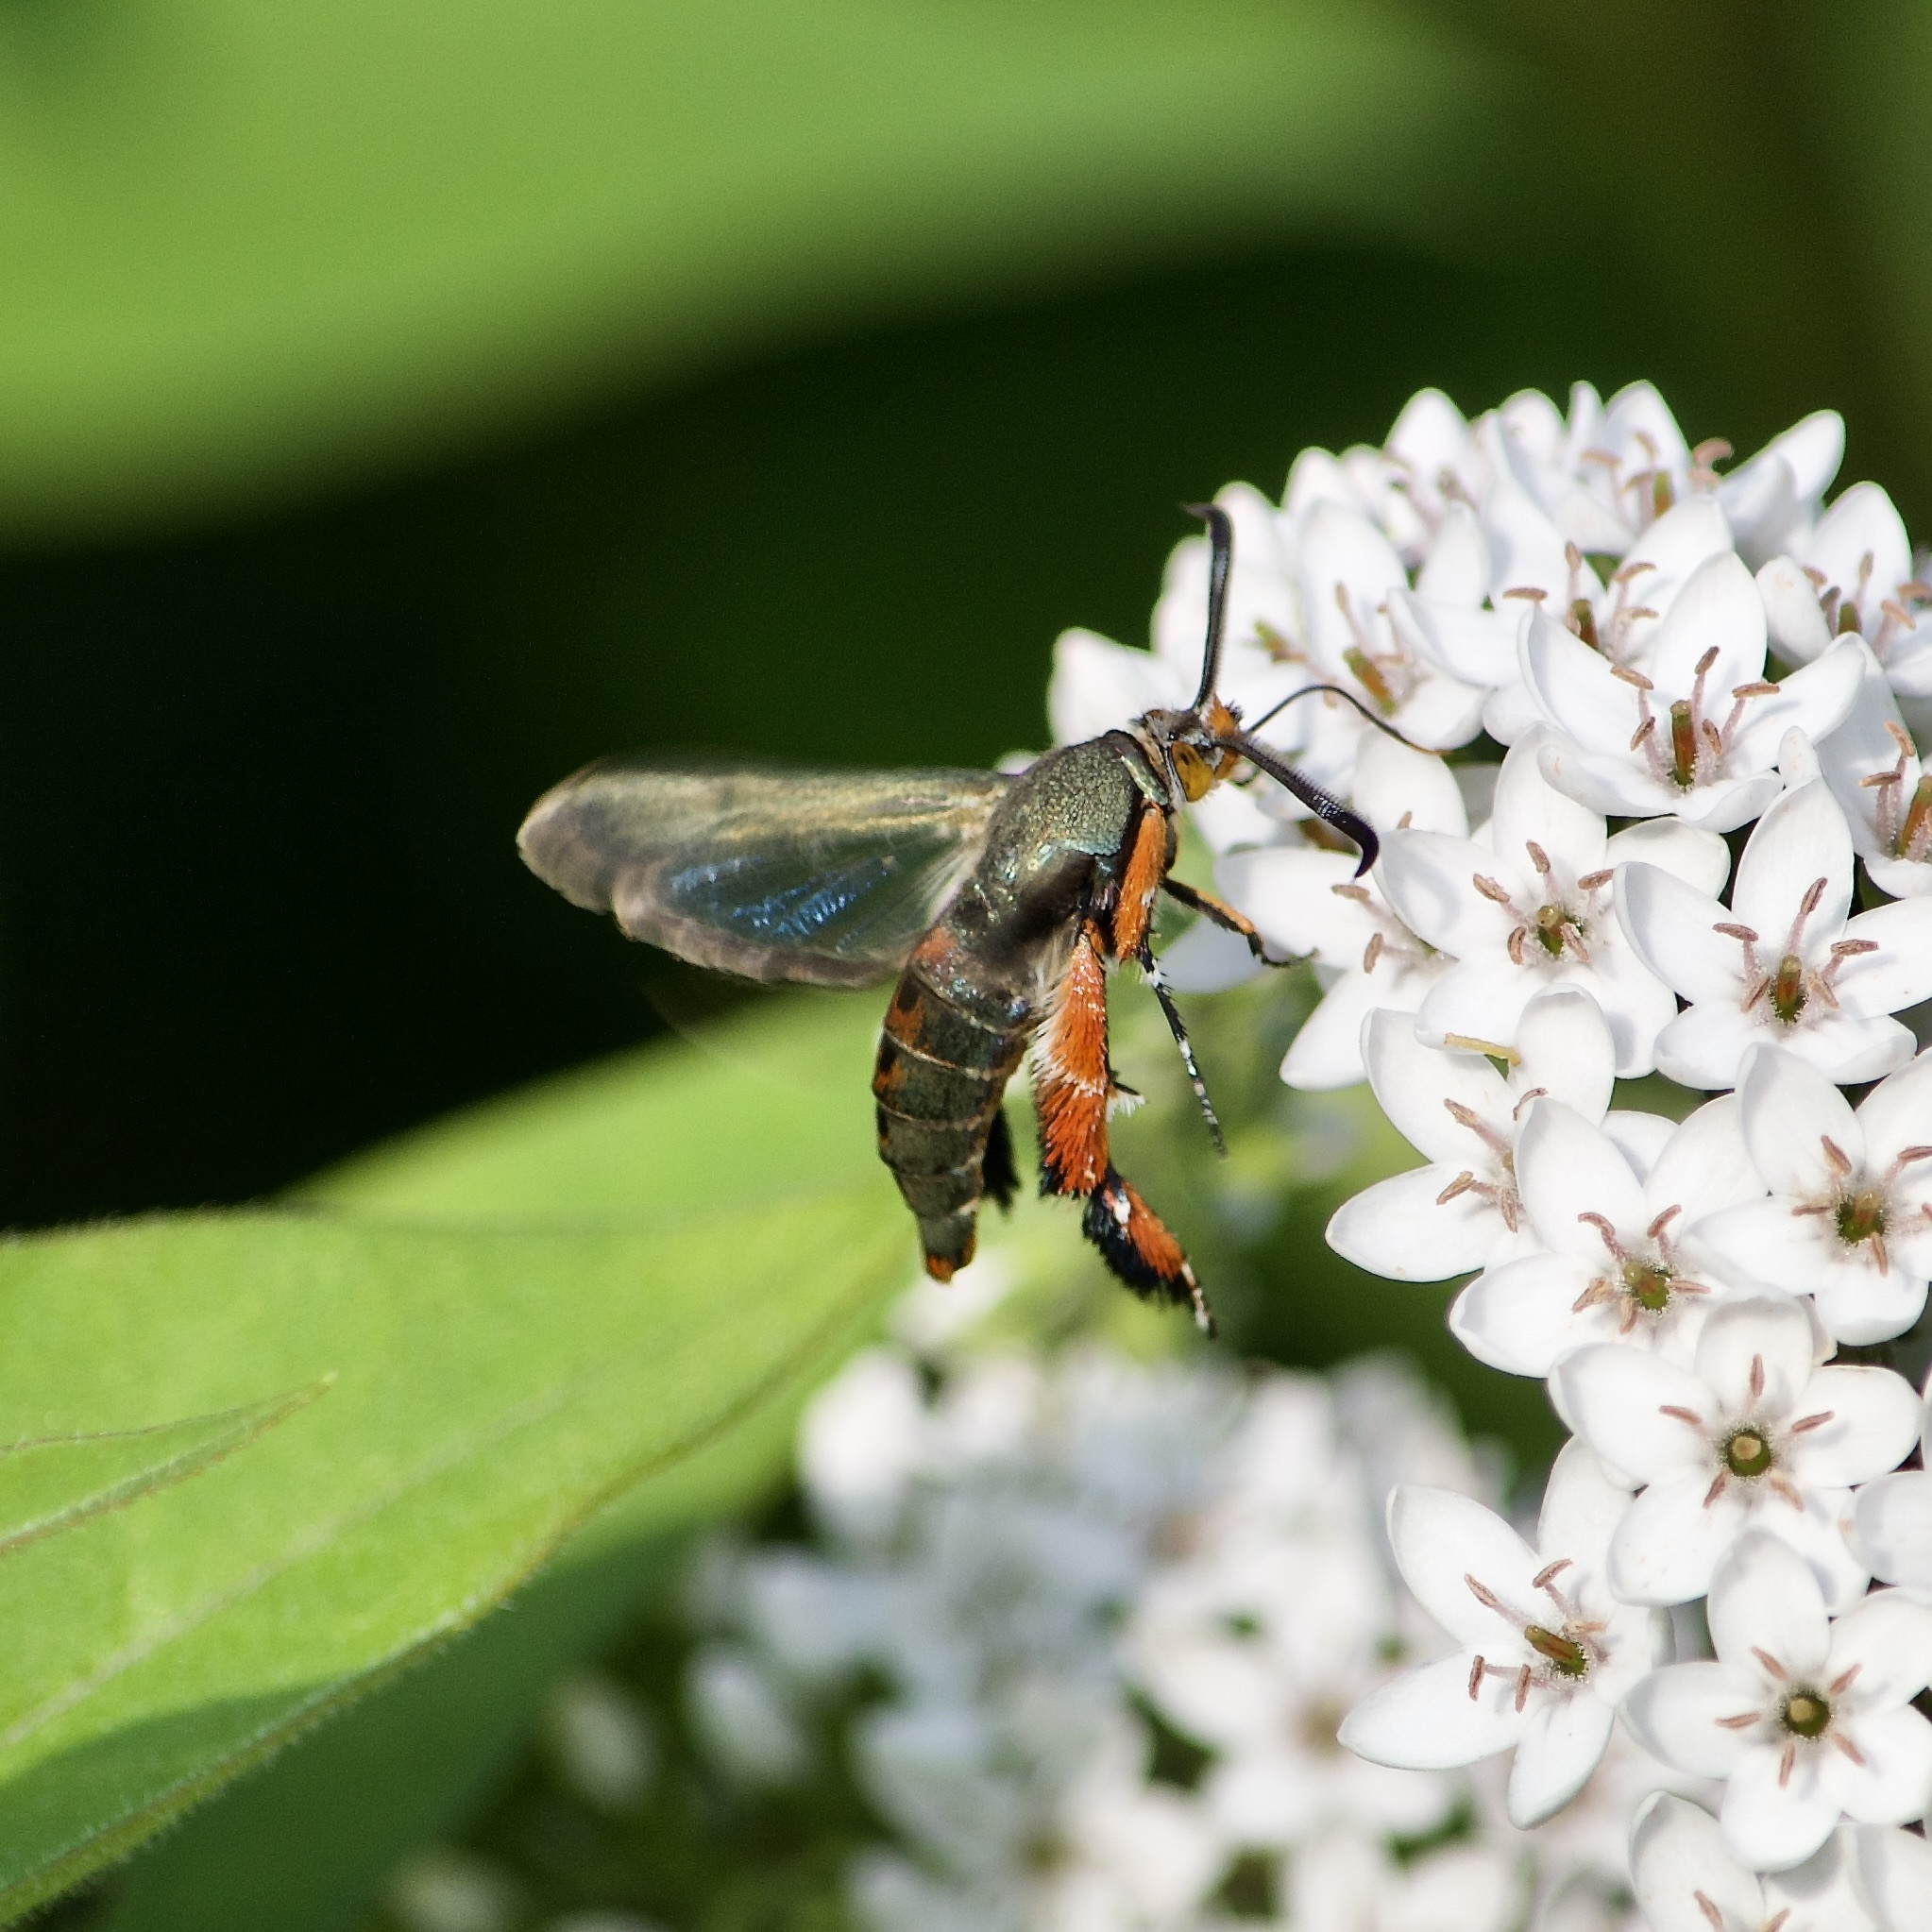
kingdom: Animalia
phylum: Arthropoda
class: Insecta
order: Lepidoptera
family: Sesiidae
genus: Eichlinia
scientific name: Eichlinia cucurbitae
